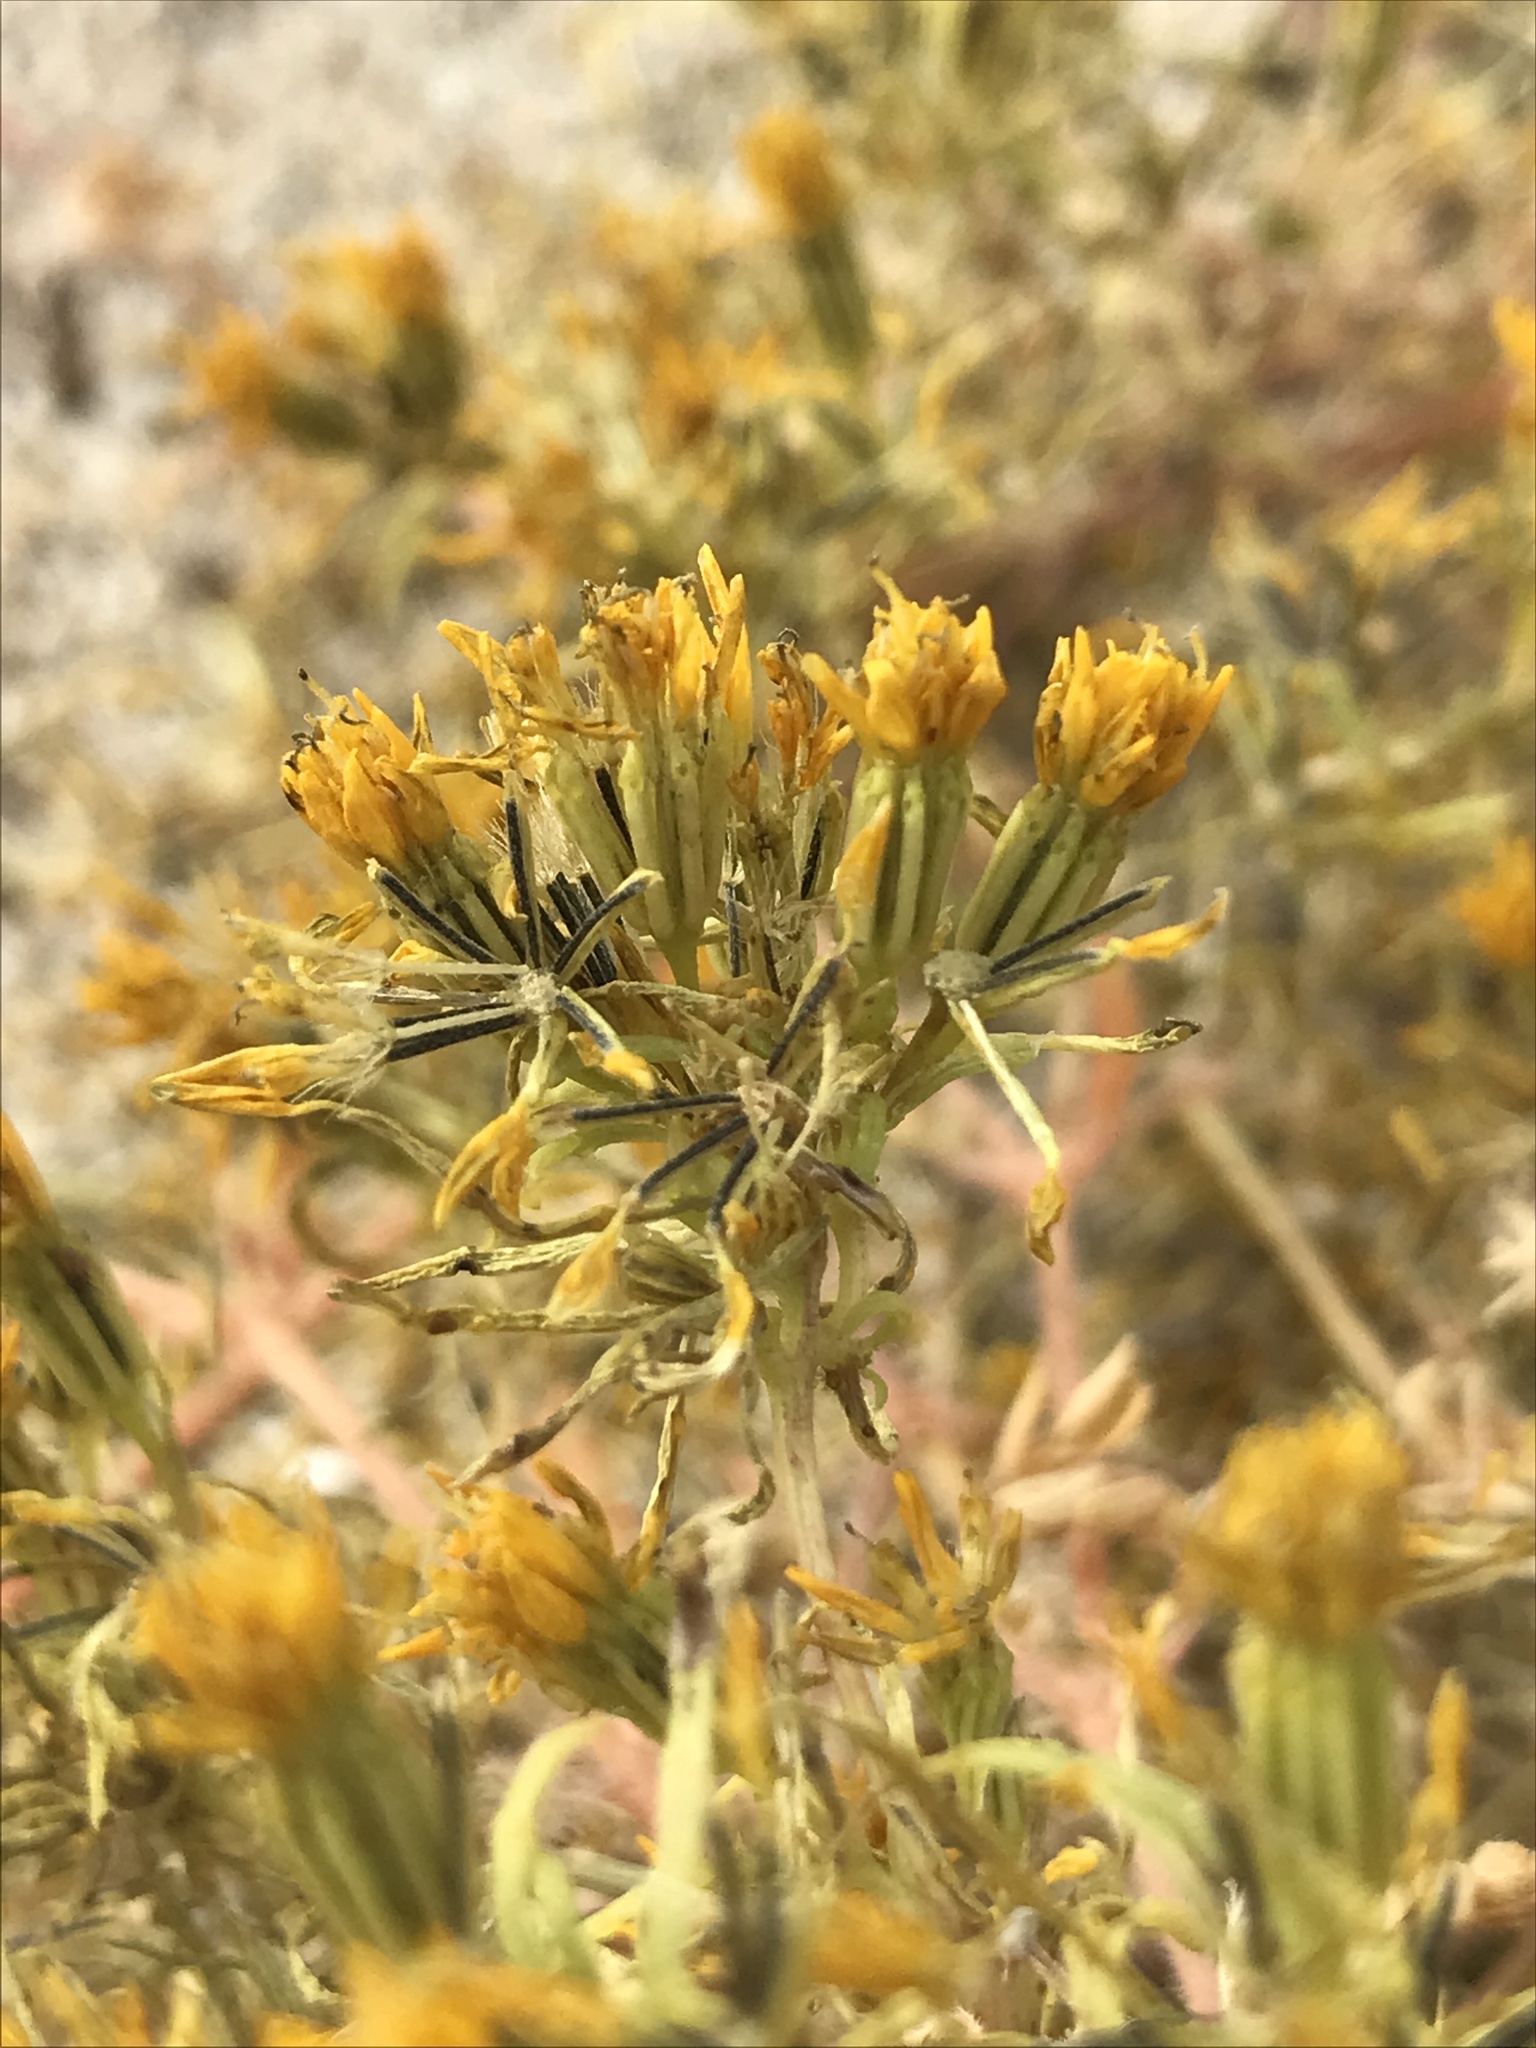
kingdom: Plantae
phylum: Tracheophyta
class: Magnoliopsida
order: Asterales
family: Asteraceae
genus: Pectis
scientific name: Pectis papposa
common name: Many-bristle chinchweed
